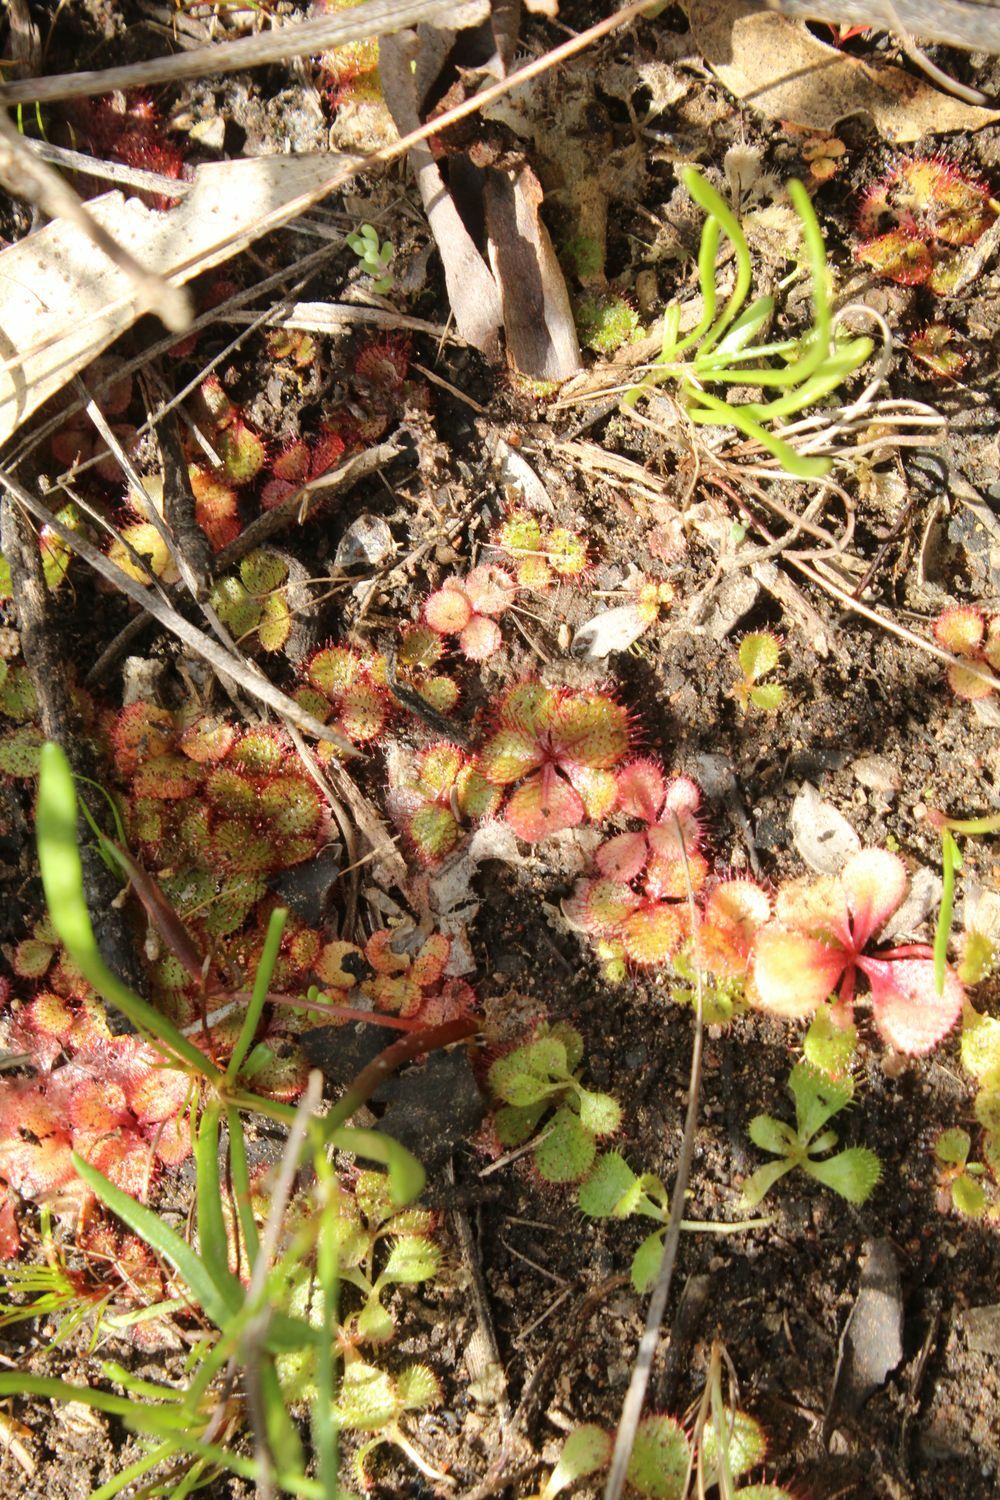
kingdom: Plantae
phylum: Tracheophyta
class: Magnoliopsida
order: Caryophyllales
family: Droseraceae
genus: Drosera
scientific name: Drosera tubaestylis
